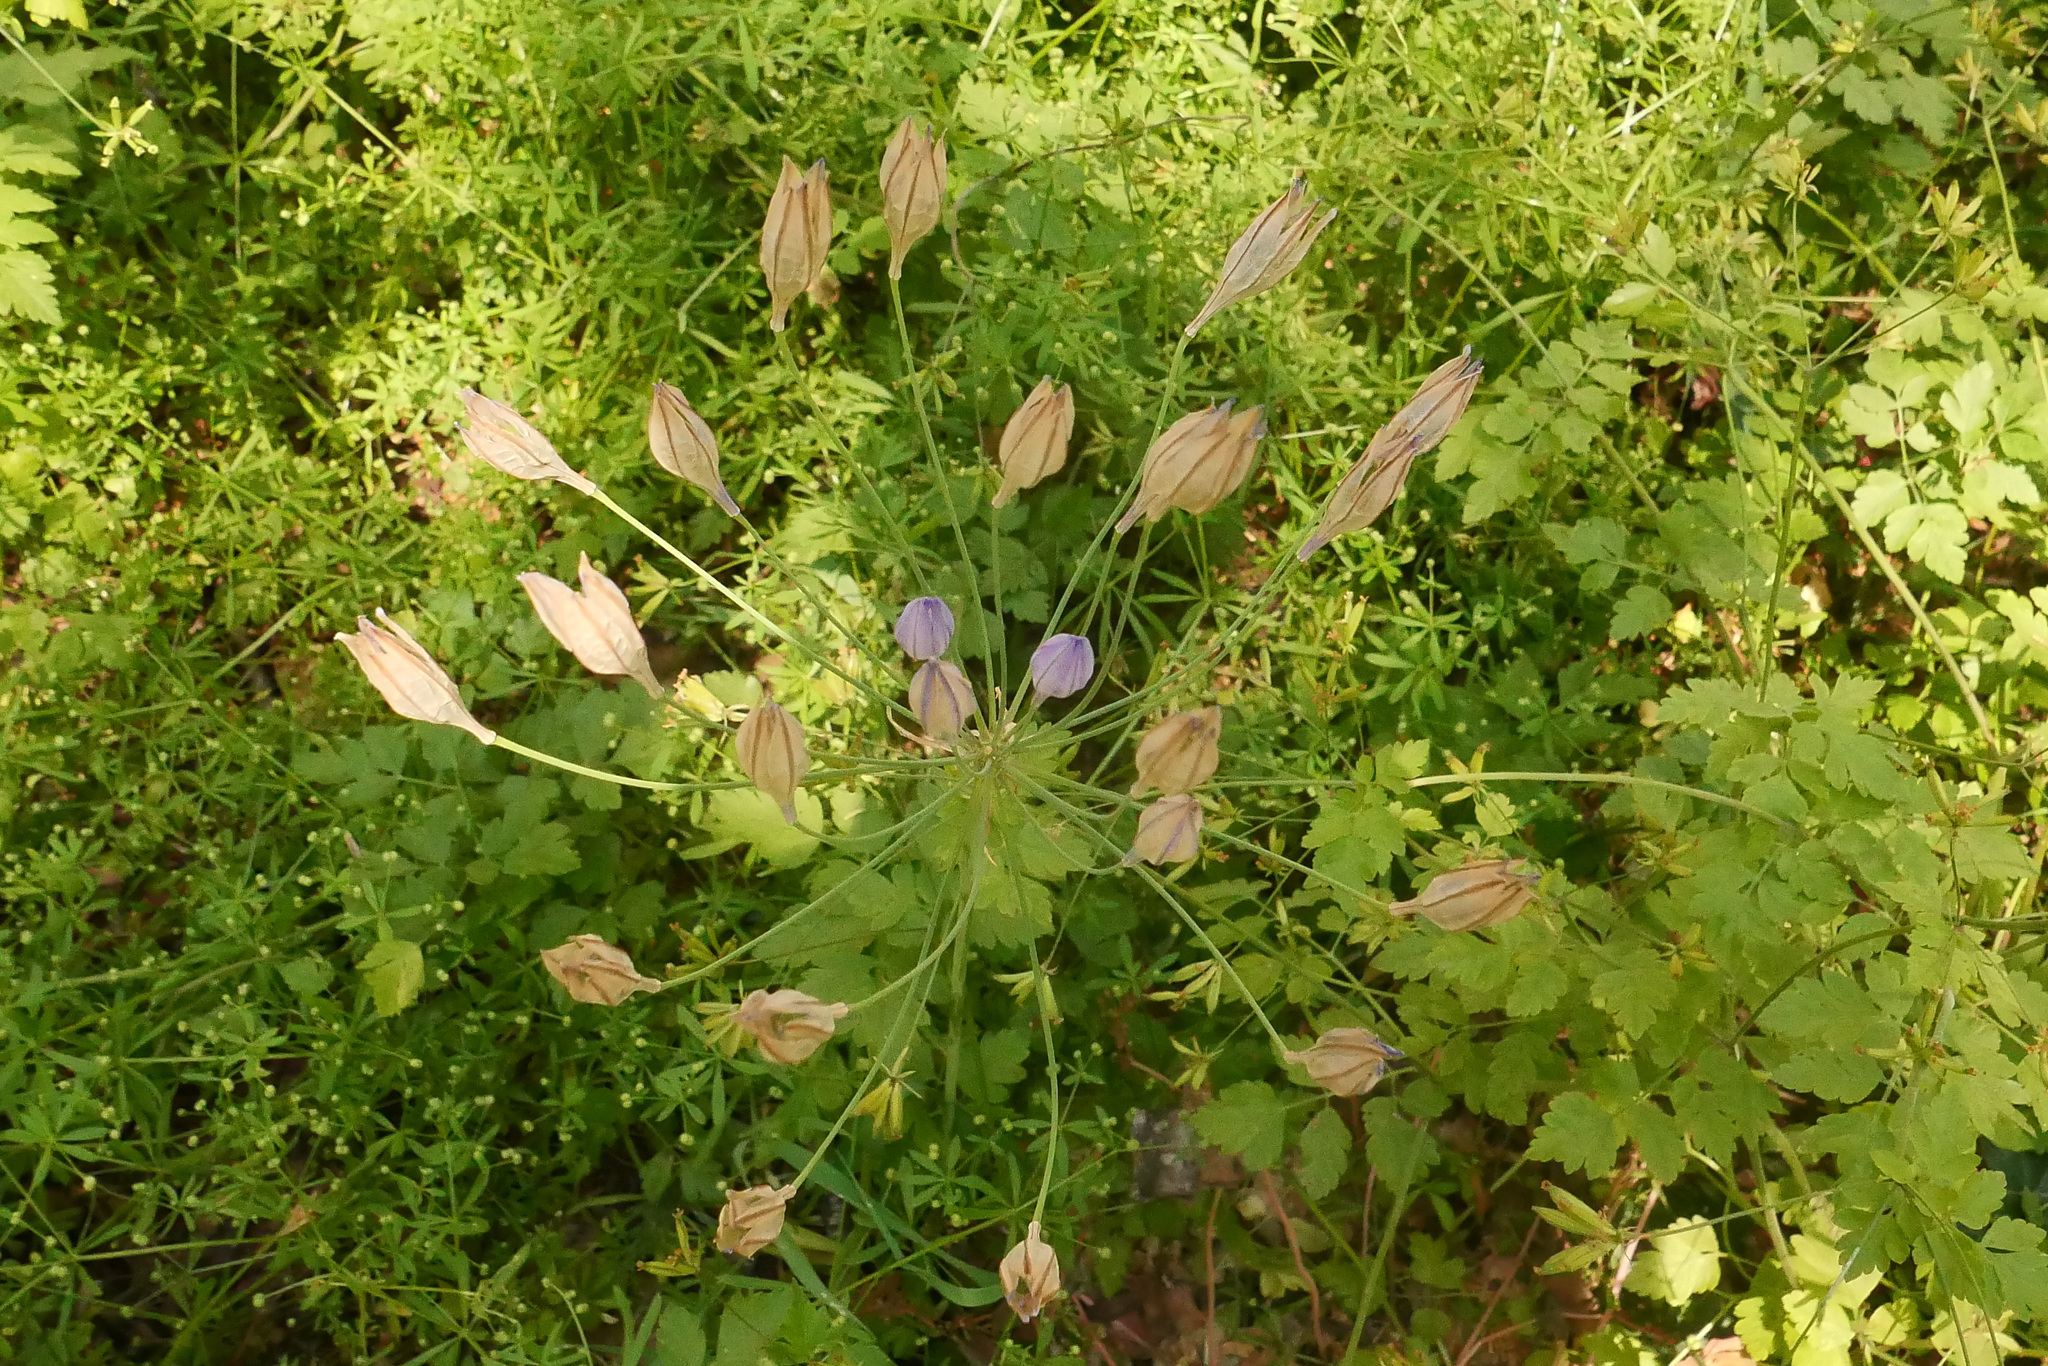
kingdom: Plantae
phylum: Tracheophyta
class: Liliopsida
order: Asparagales
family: Asparagaceae
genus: Triteleia
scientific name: Triteleia laxa
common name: Triplet-lily
